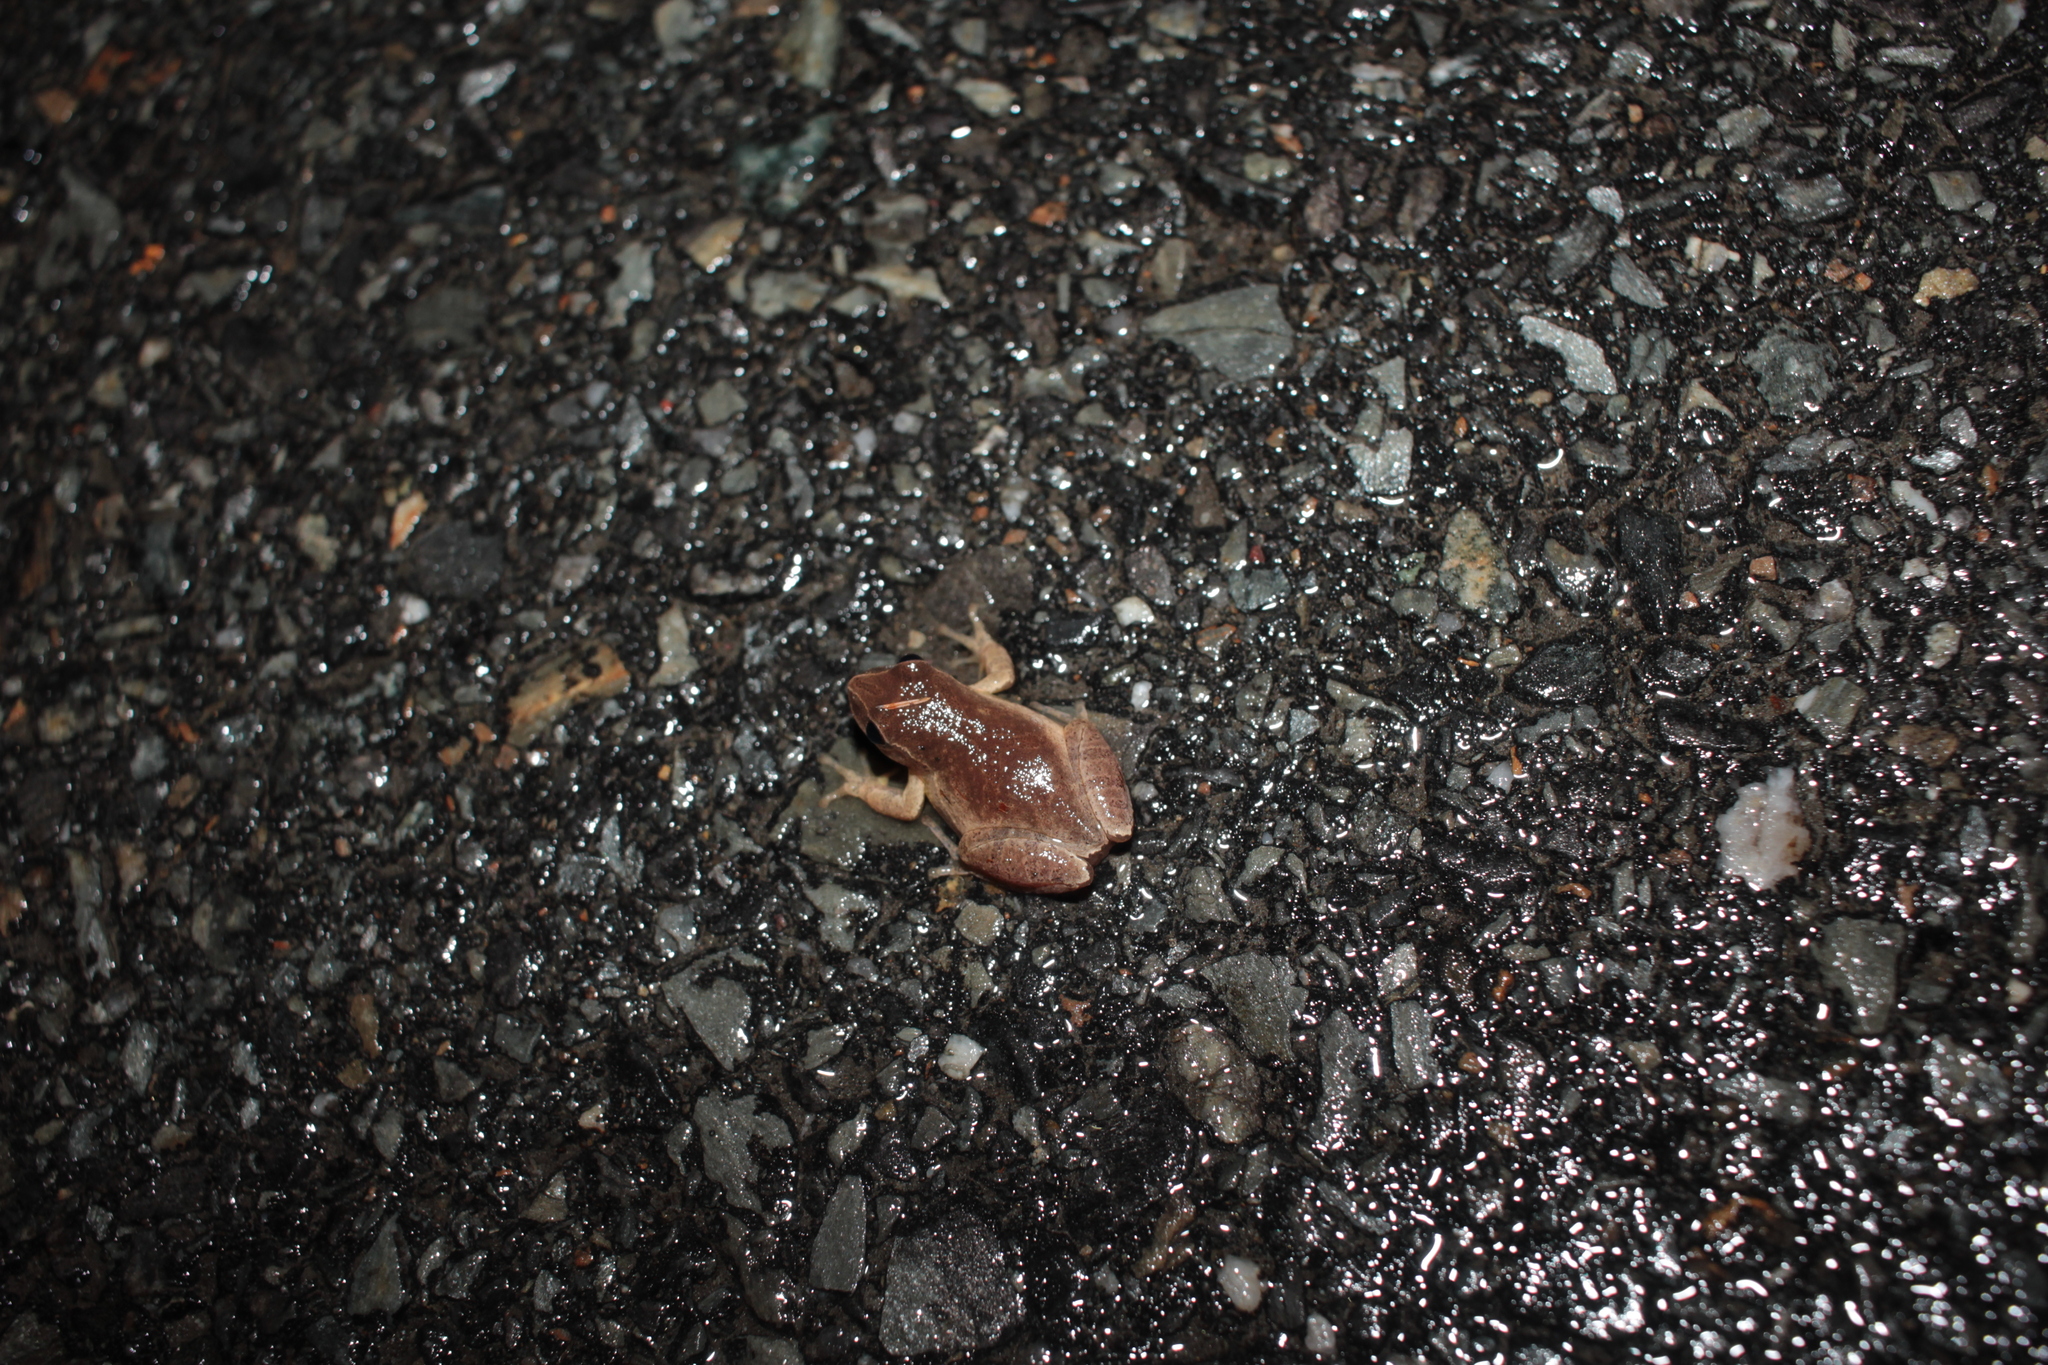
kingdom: Animalia
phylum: Chordata
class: Amphibia
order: Anura
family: Hylidae
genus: Pseudacris
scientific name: Pseudacris crucifer
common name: Spring peeper
